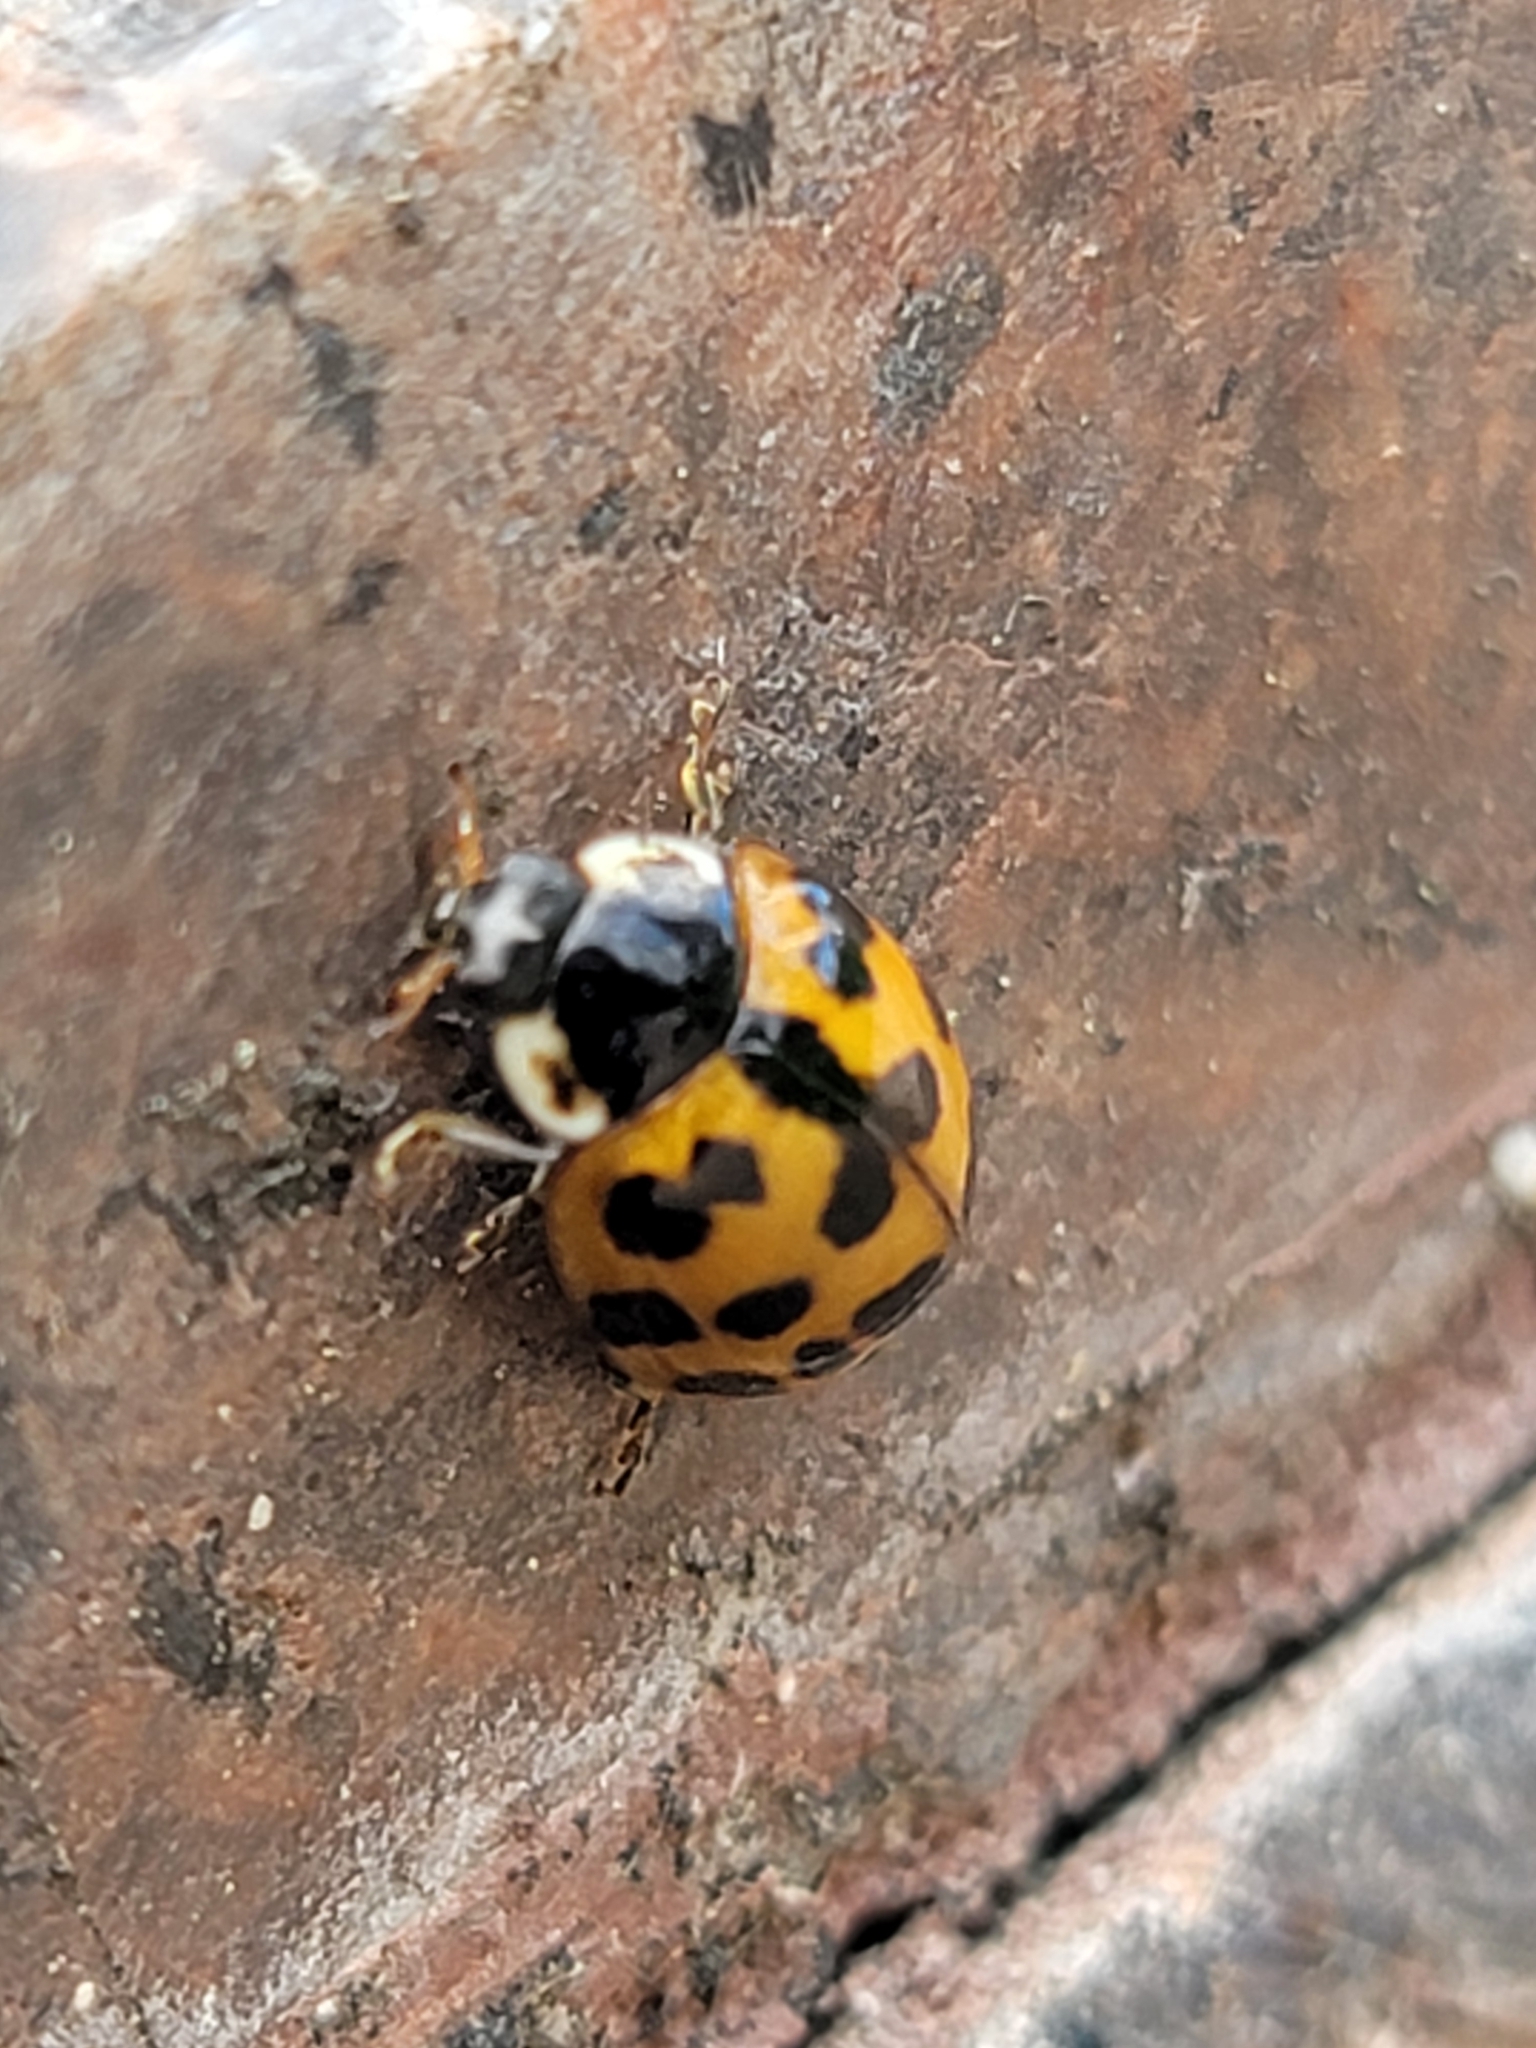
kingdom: Animalia
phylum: Arthropoda
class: Insecta
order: Coleoptera
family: Coccinellidae
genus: Harmonia
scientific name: Harmonia axyridis
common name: Harlequin ladybird
